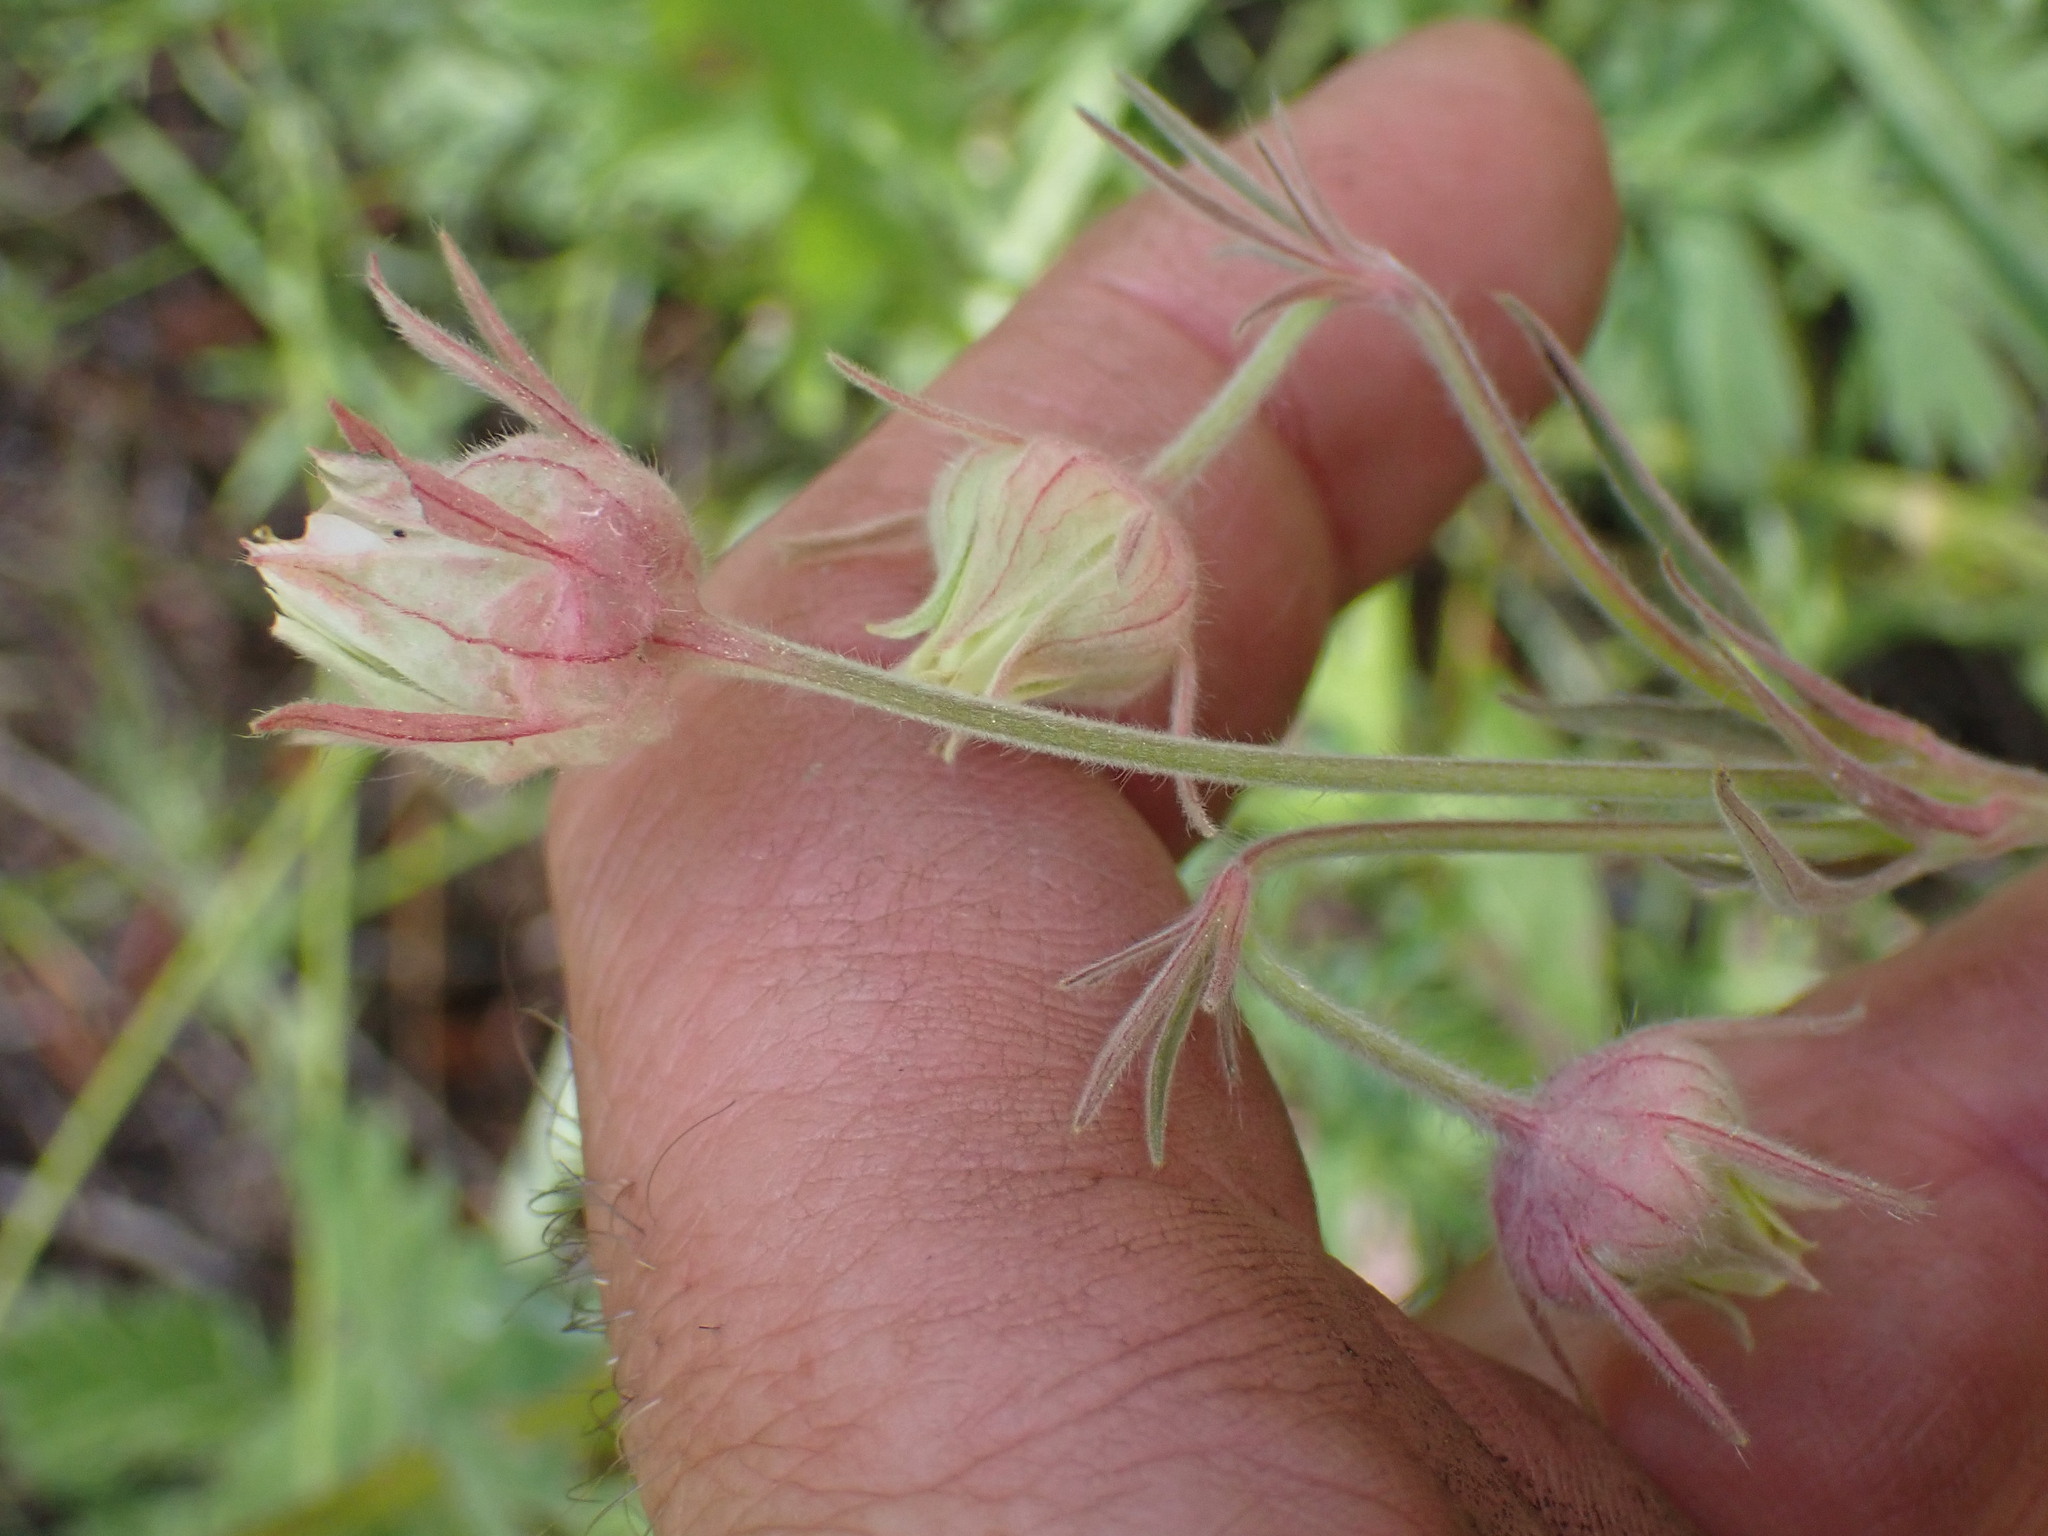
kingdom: Plantae
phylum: Tracheophyta
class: Magnoliopsida
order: Rosales
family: Rosaceae
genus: Geum
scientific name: Geum triflorum
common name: Old man's whiskers
